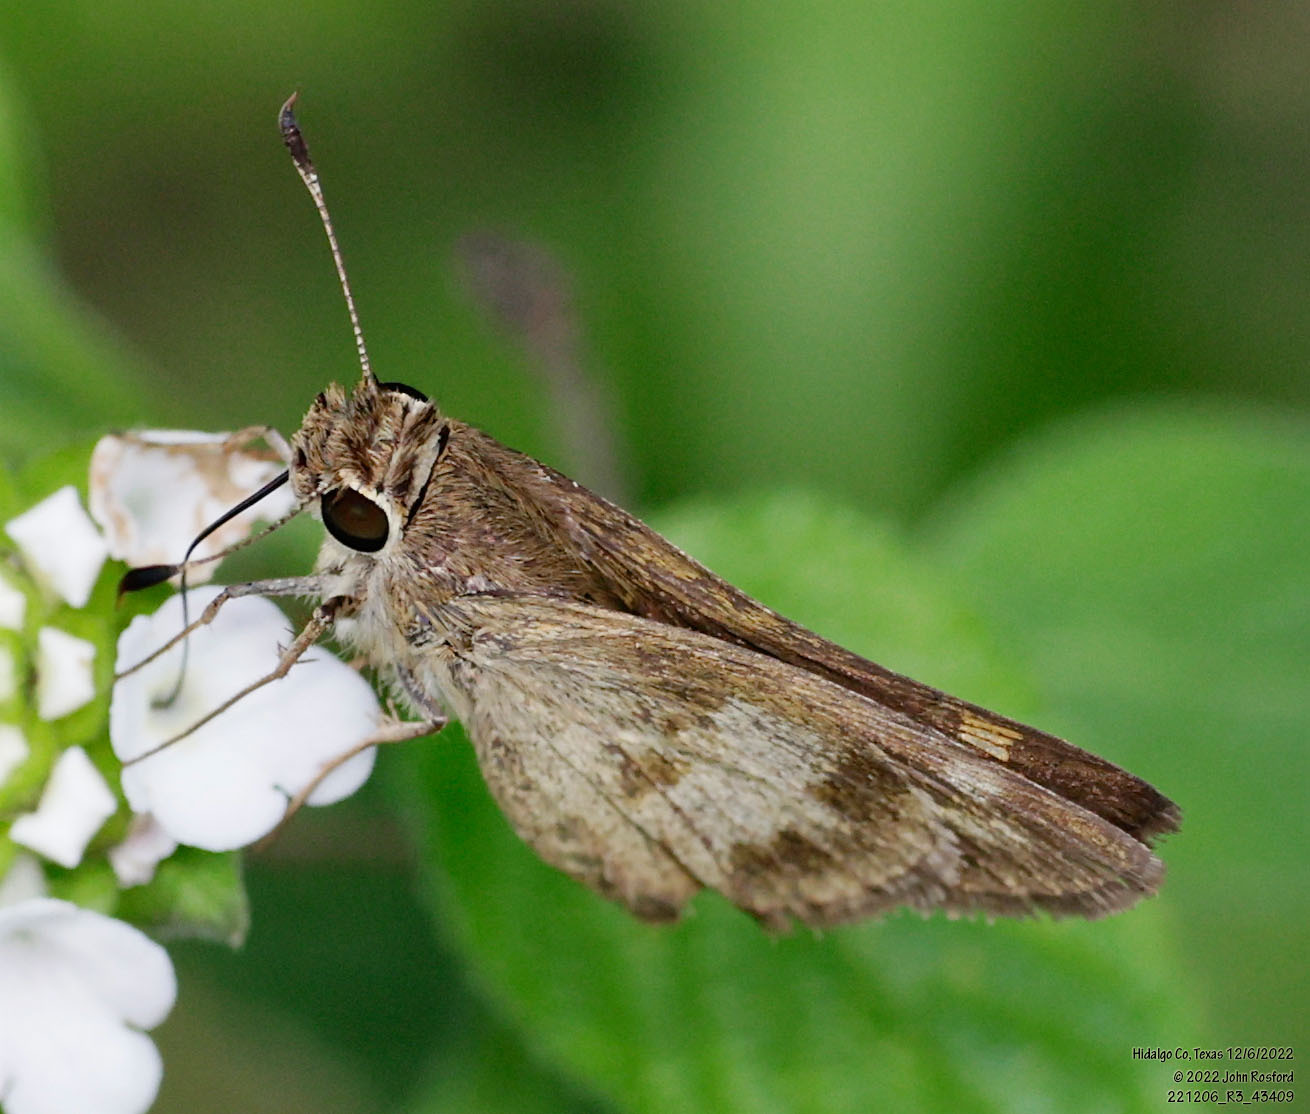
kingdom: Animalia
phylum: Arthropoda
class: Insecta
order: Lepidoptera
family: Hesperiidae
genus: Polites
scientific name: Polites vibex
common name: Whirlabout
